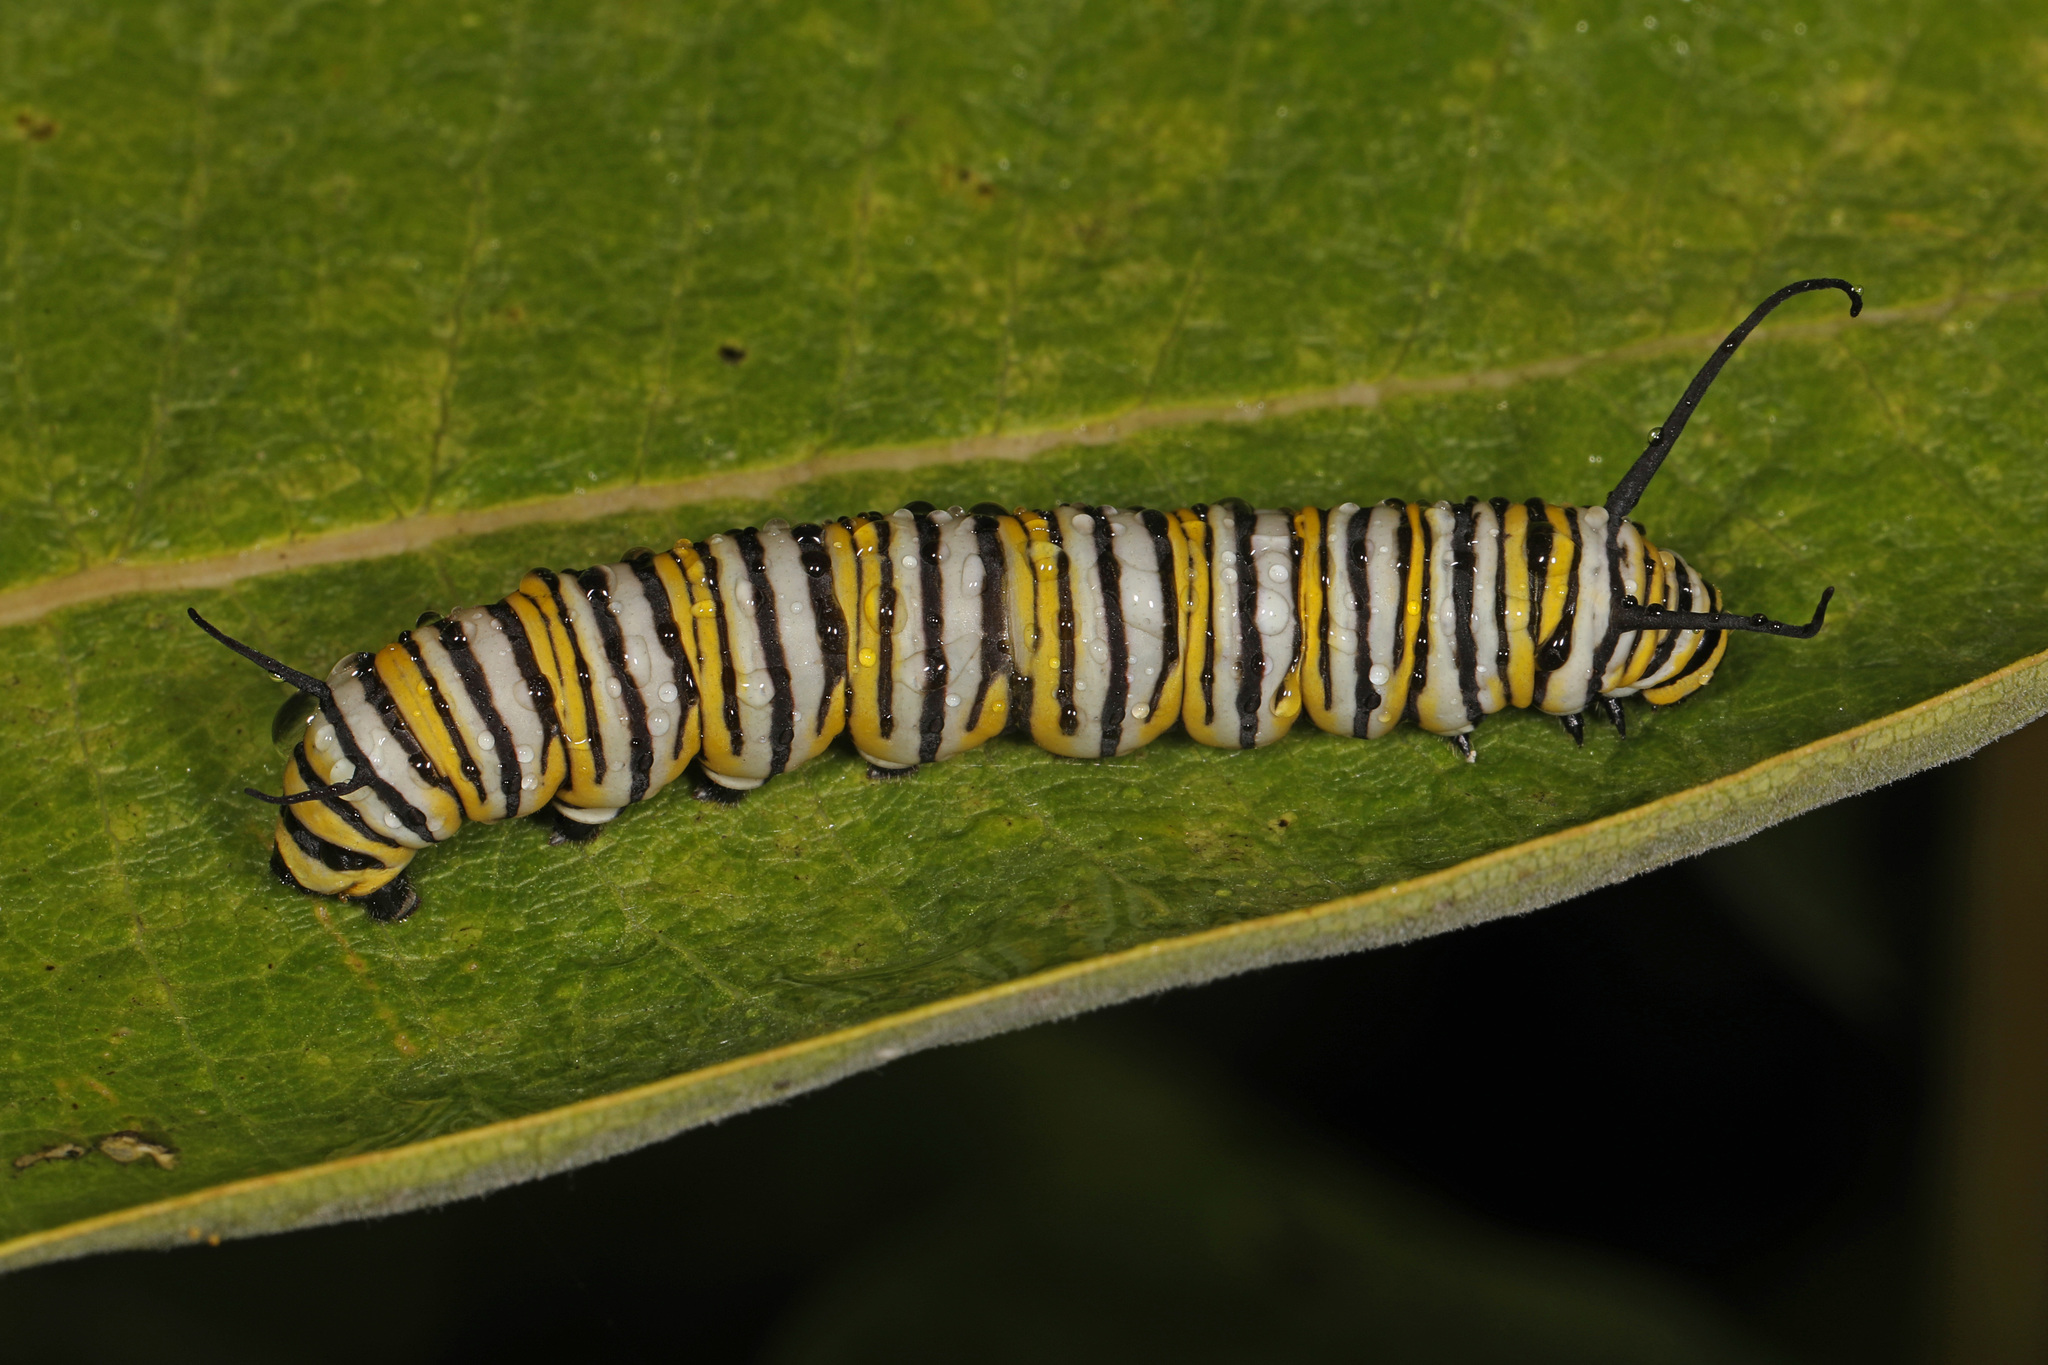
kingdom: Animalia
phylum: Arthropoda
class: Insecta
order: Lepidoptera
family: Nymphalidae
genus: Danaus
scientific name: Danaus plexippus
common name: Monarch
